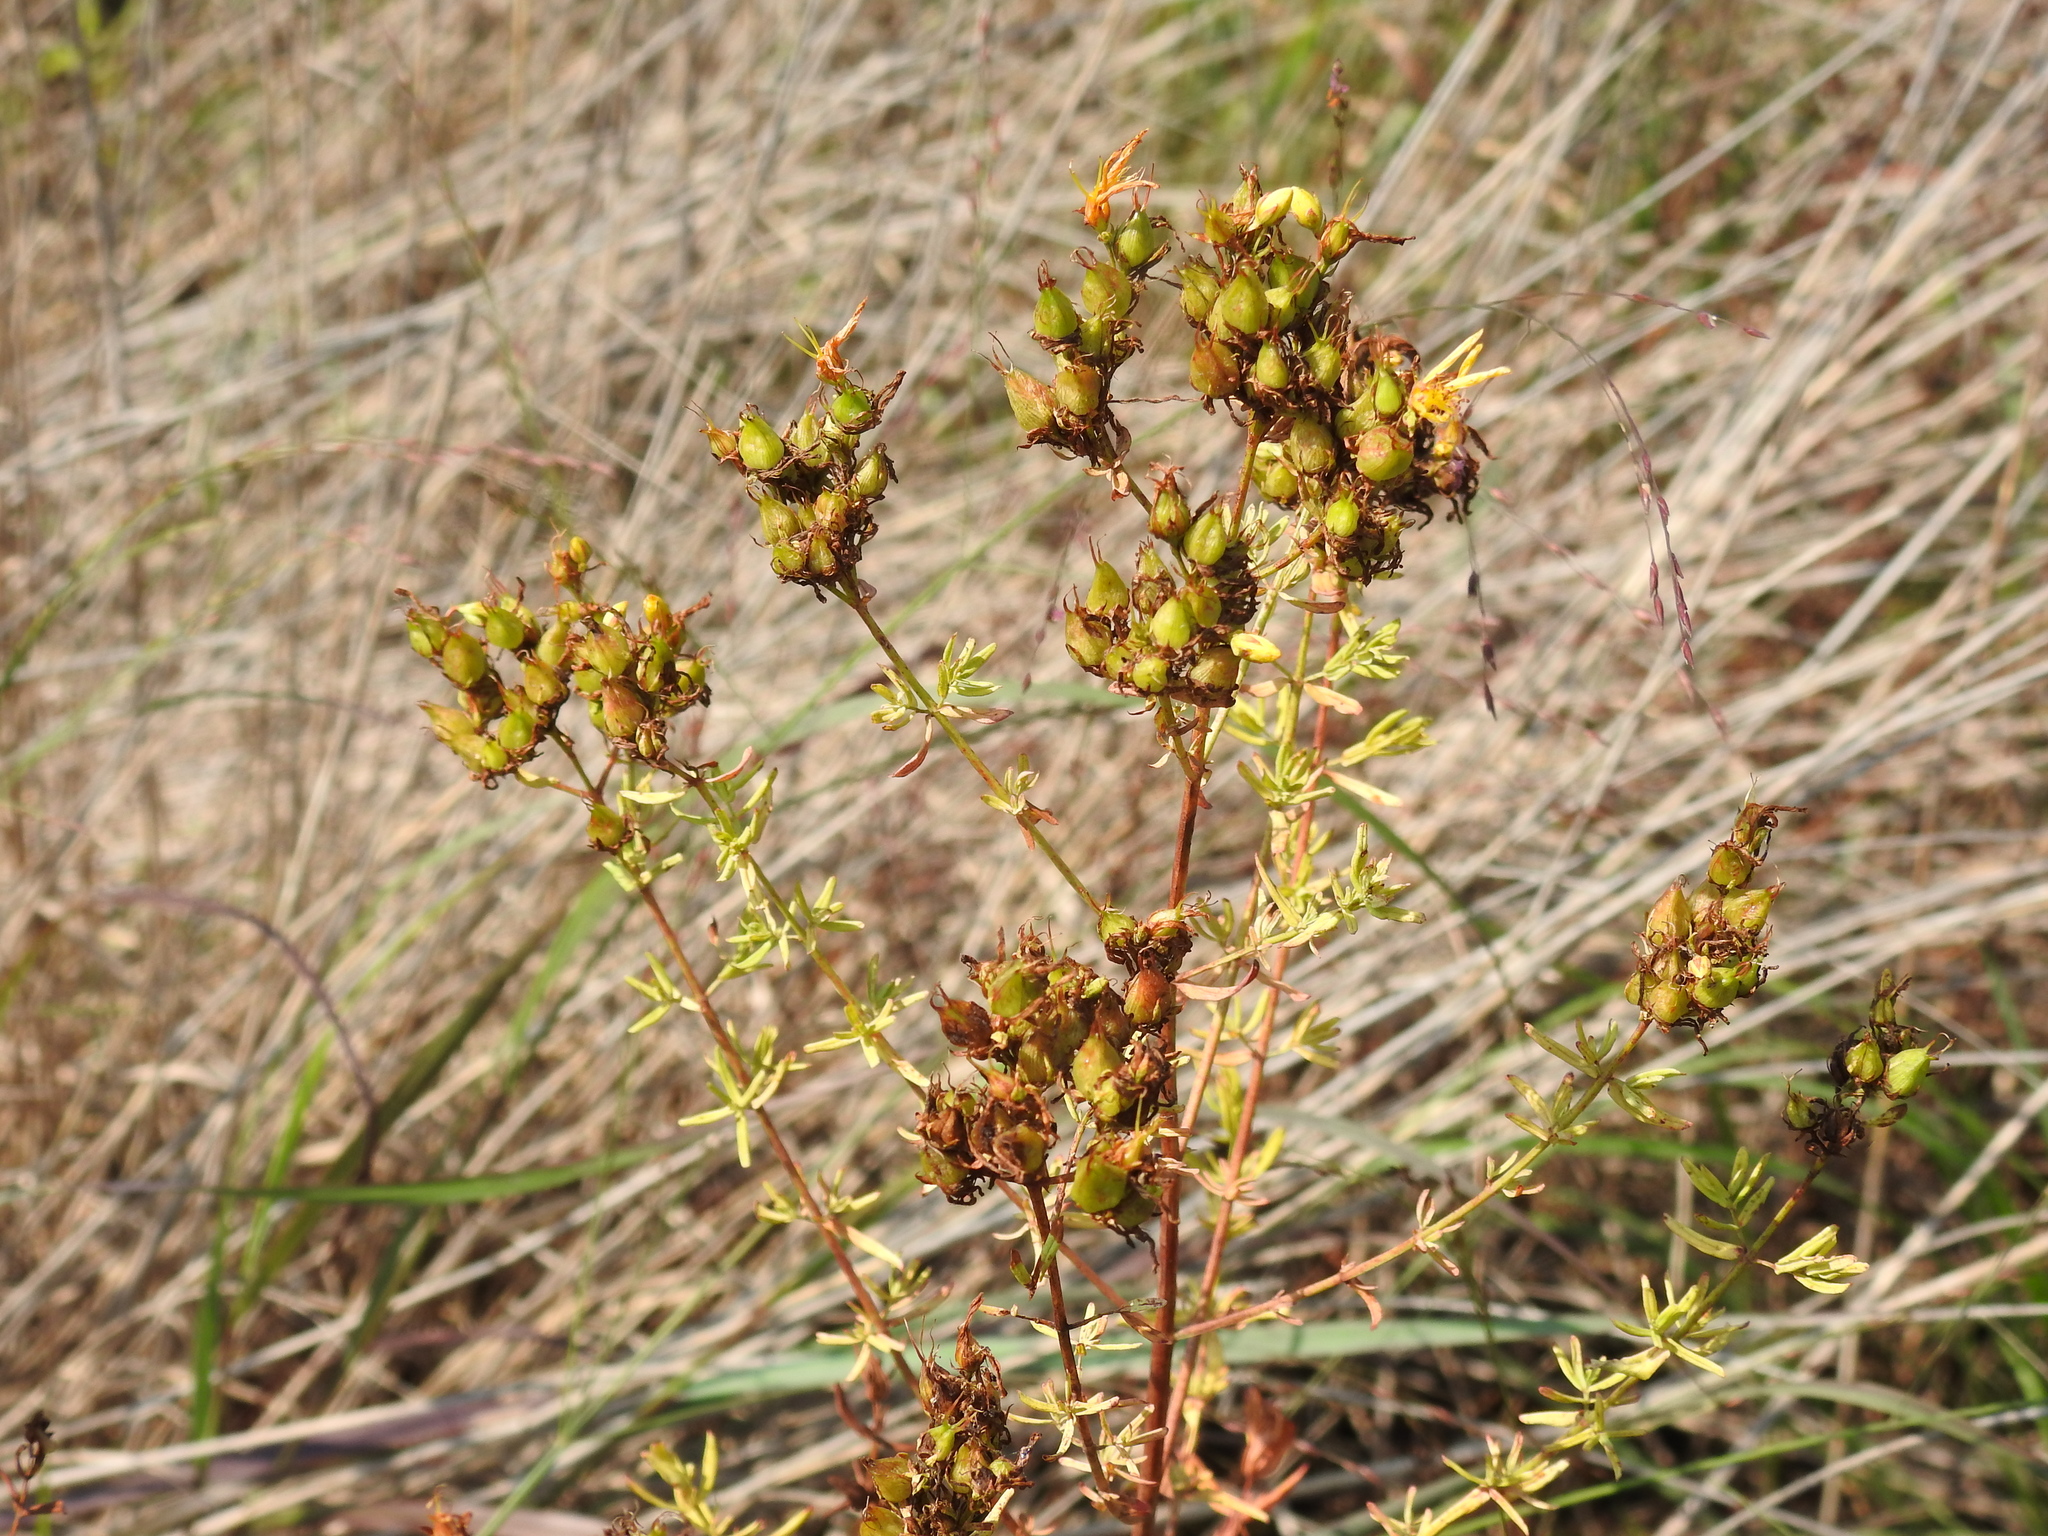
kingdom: Plantae
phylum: Tracheophyta
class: Magnoliopsida
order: Malpighiales
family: Hypericaceae
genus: Hypericum
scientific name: Hypericum perforatum
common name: Common st. johnswort
